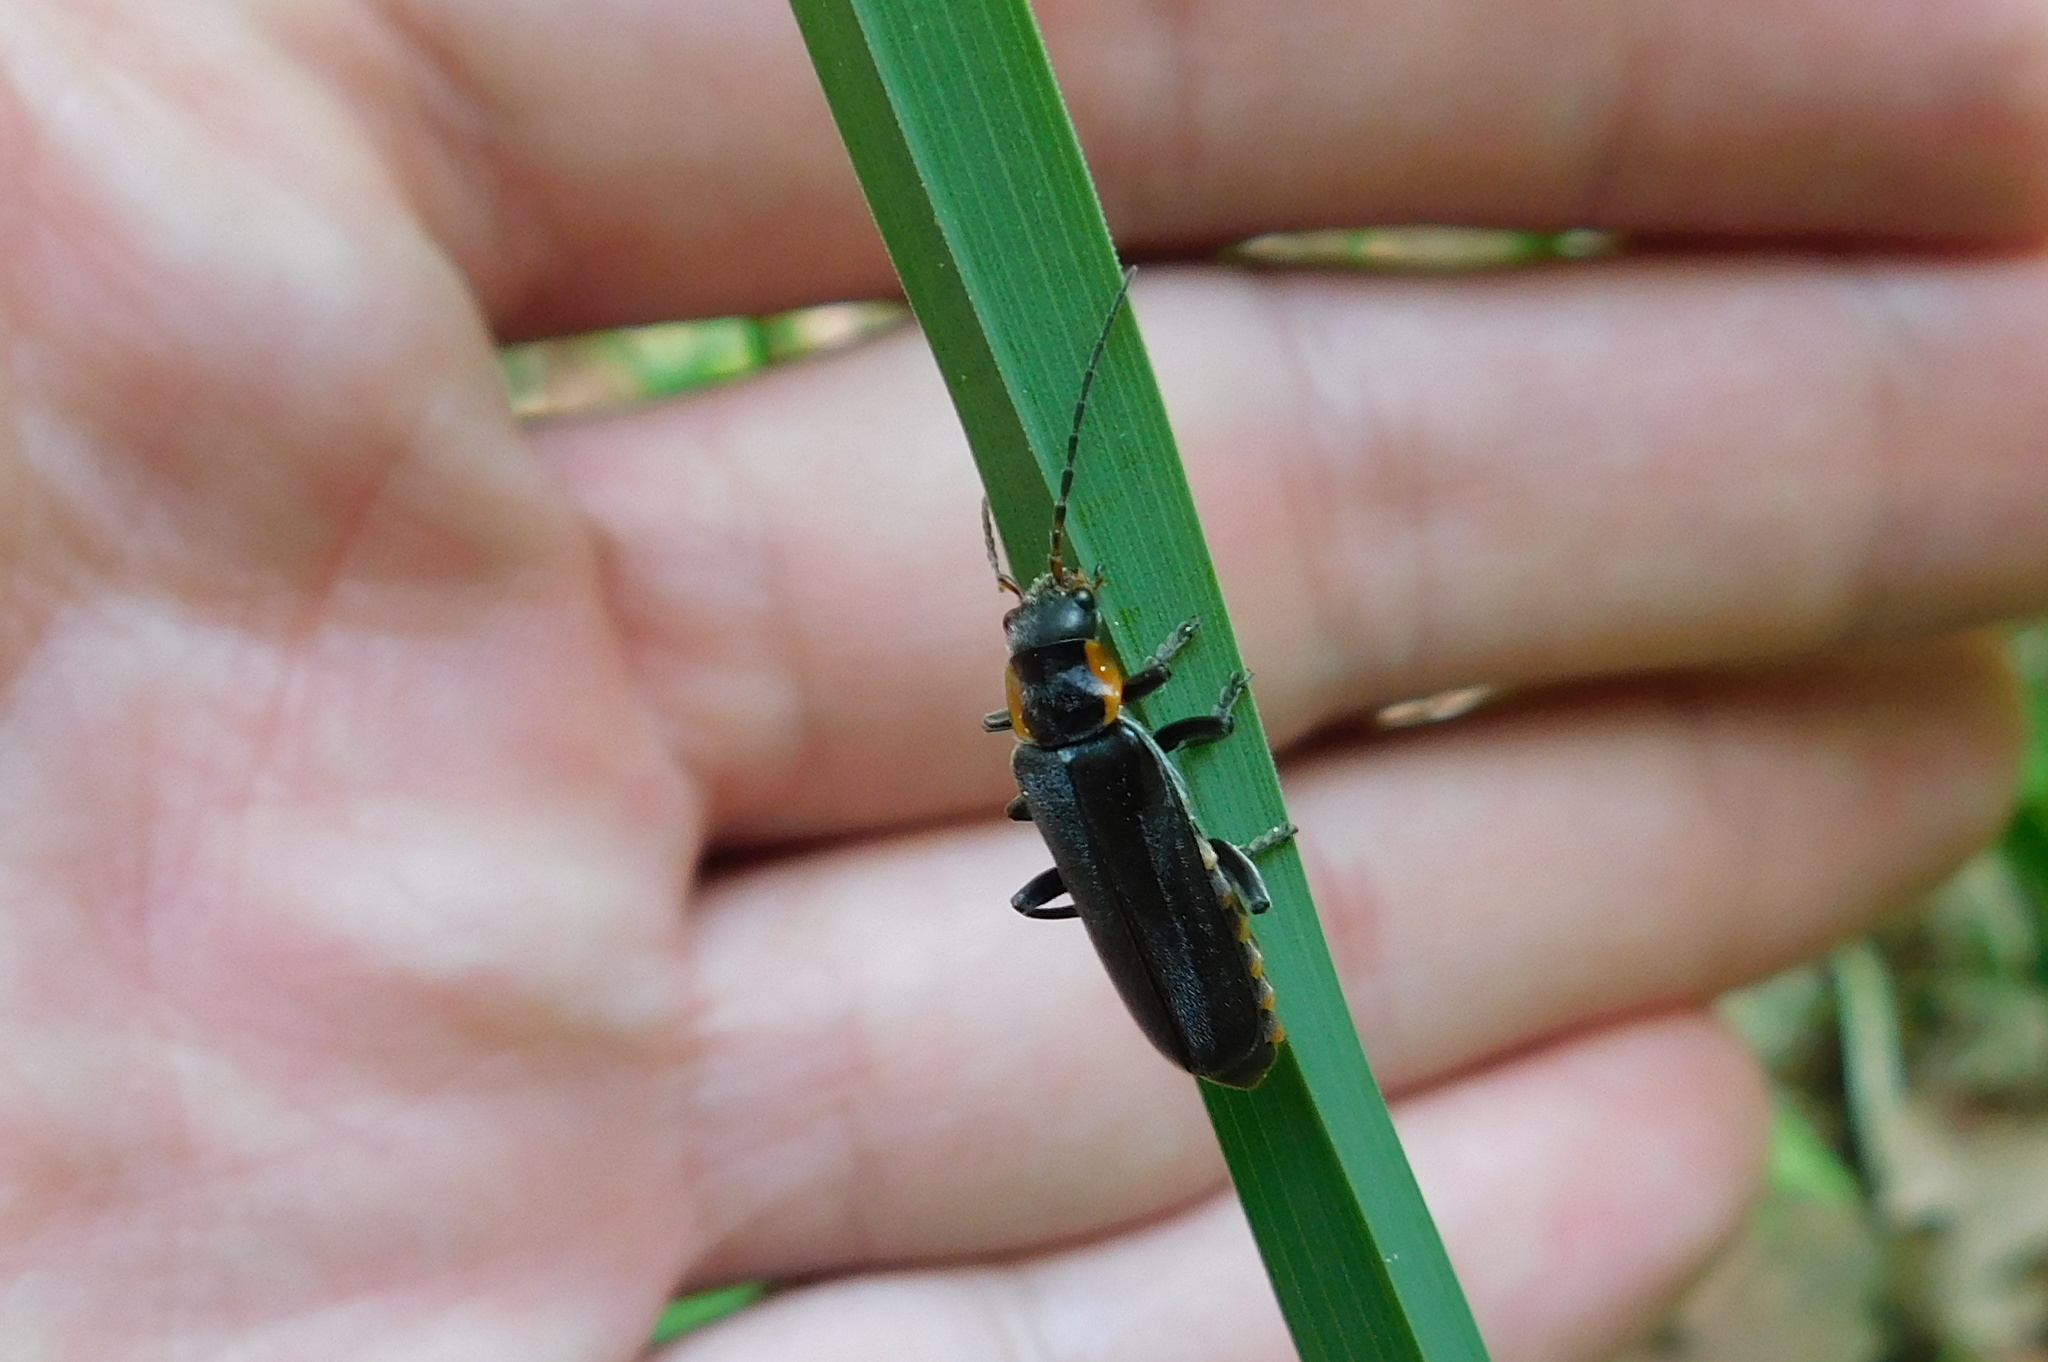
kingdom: Animalia
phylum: Arthropoda
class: Insecta
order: Coleoptera
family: Cantharidae
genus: Cantharis
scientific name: Cantharis obscura
